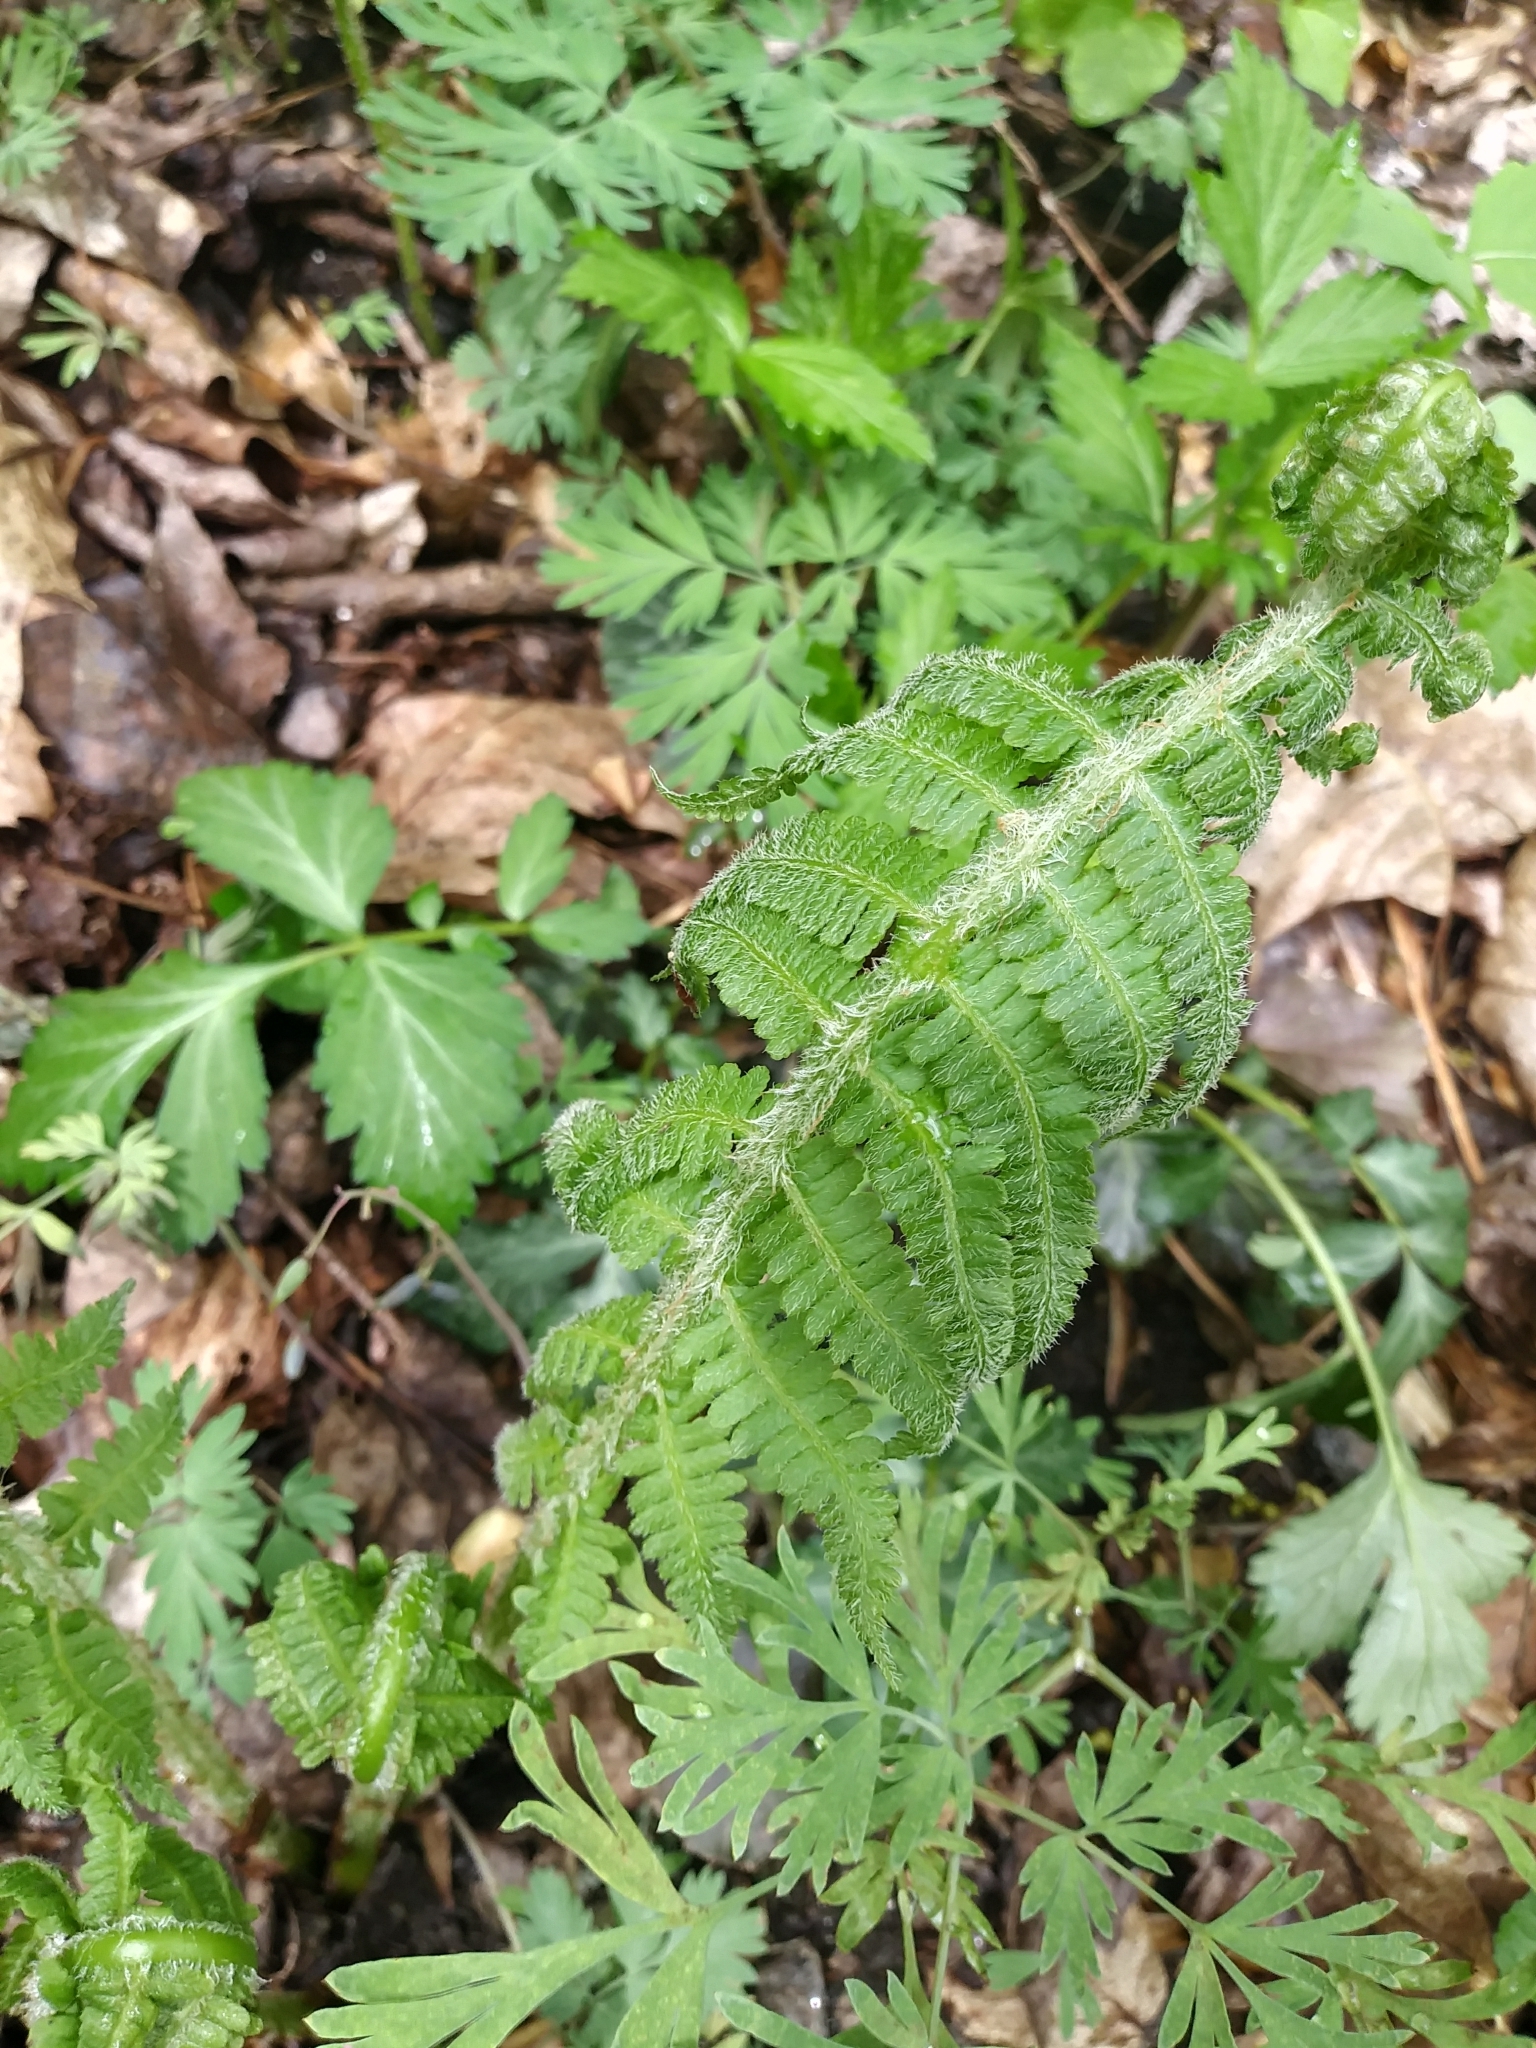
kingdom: Plantae
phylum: Tracheophyta
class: Polypodiopsida
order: Polypodiales
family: Athyriaceae
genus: Deparia
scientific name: Deparia acrostichoides
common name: Silver false spleenwort
